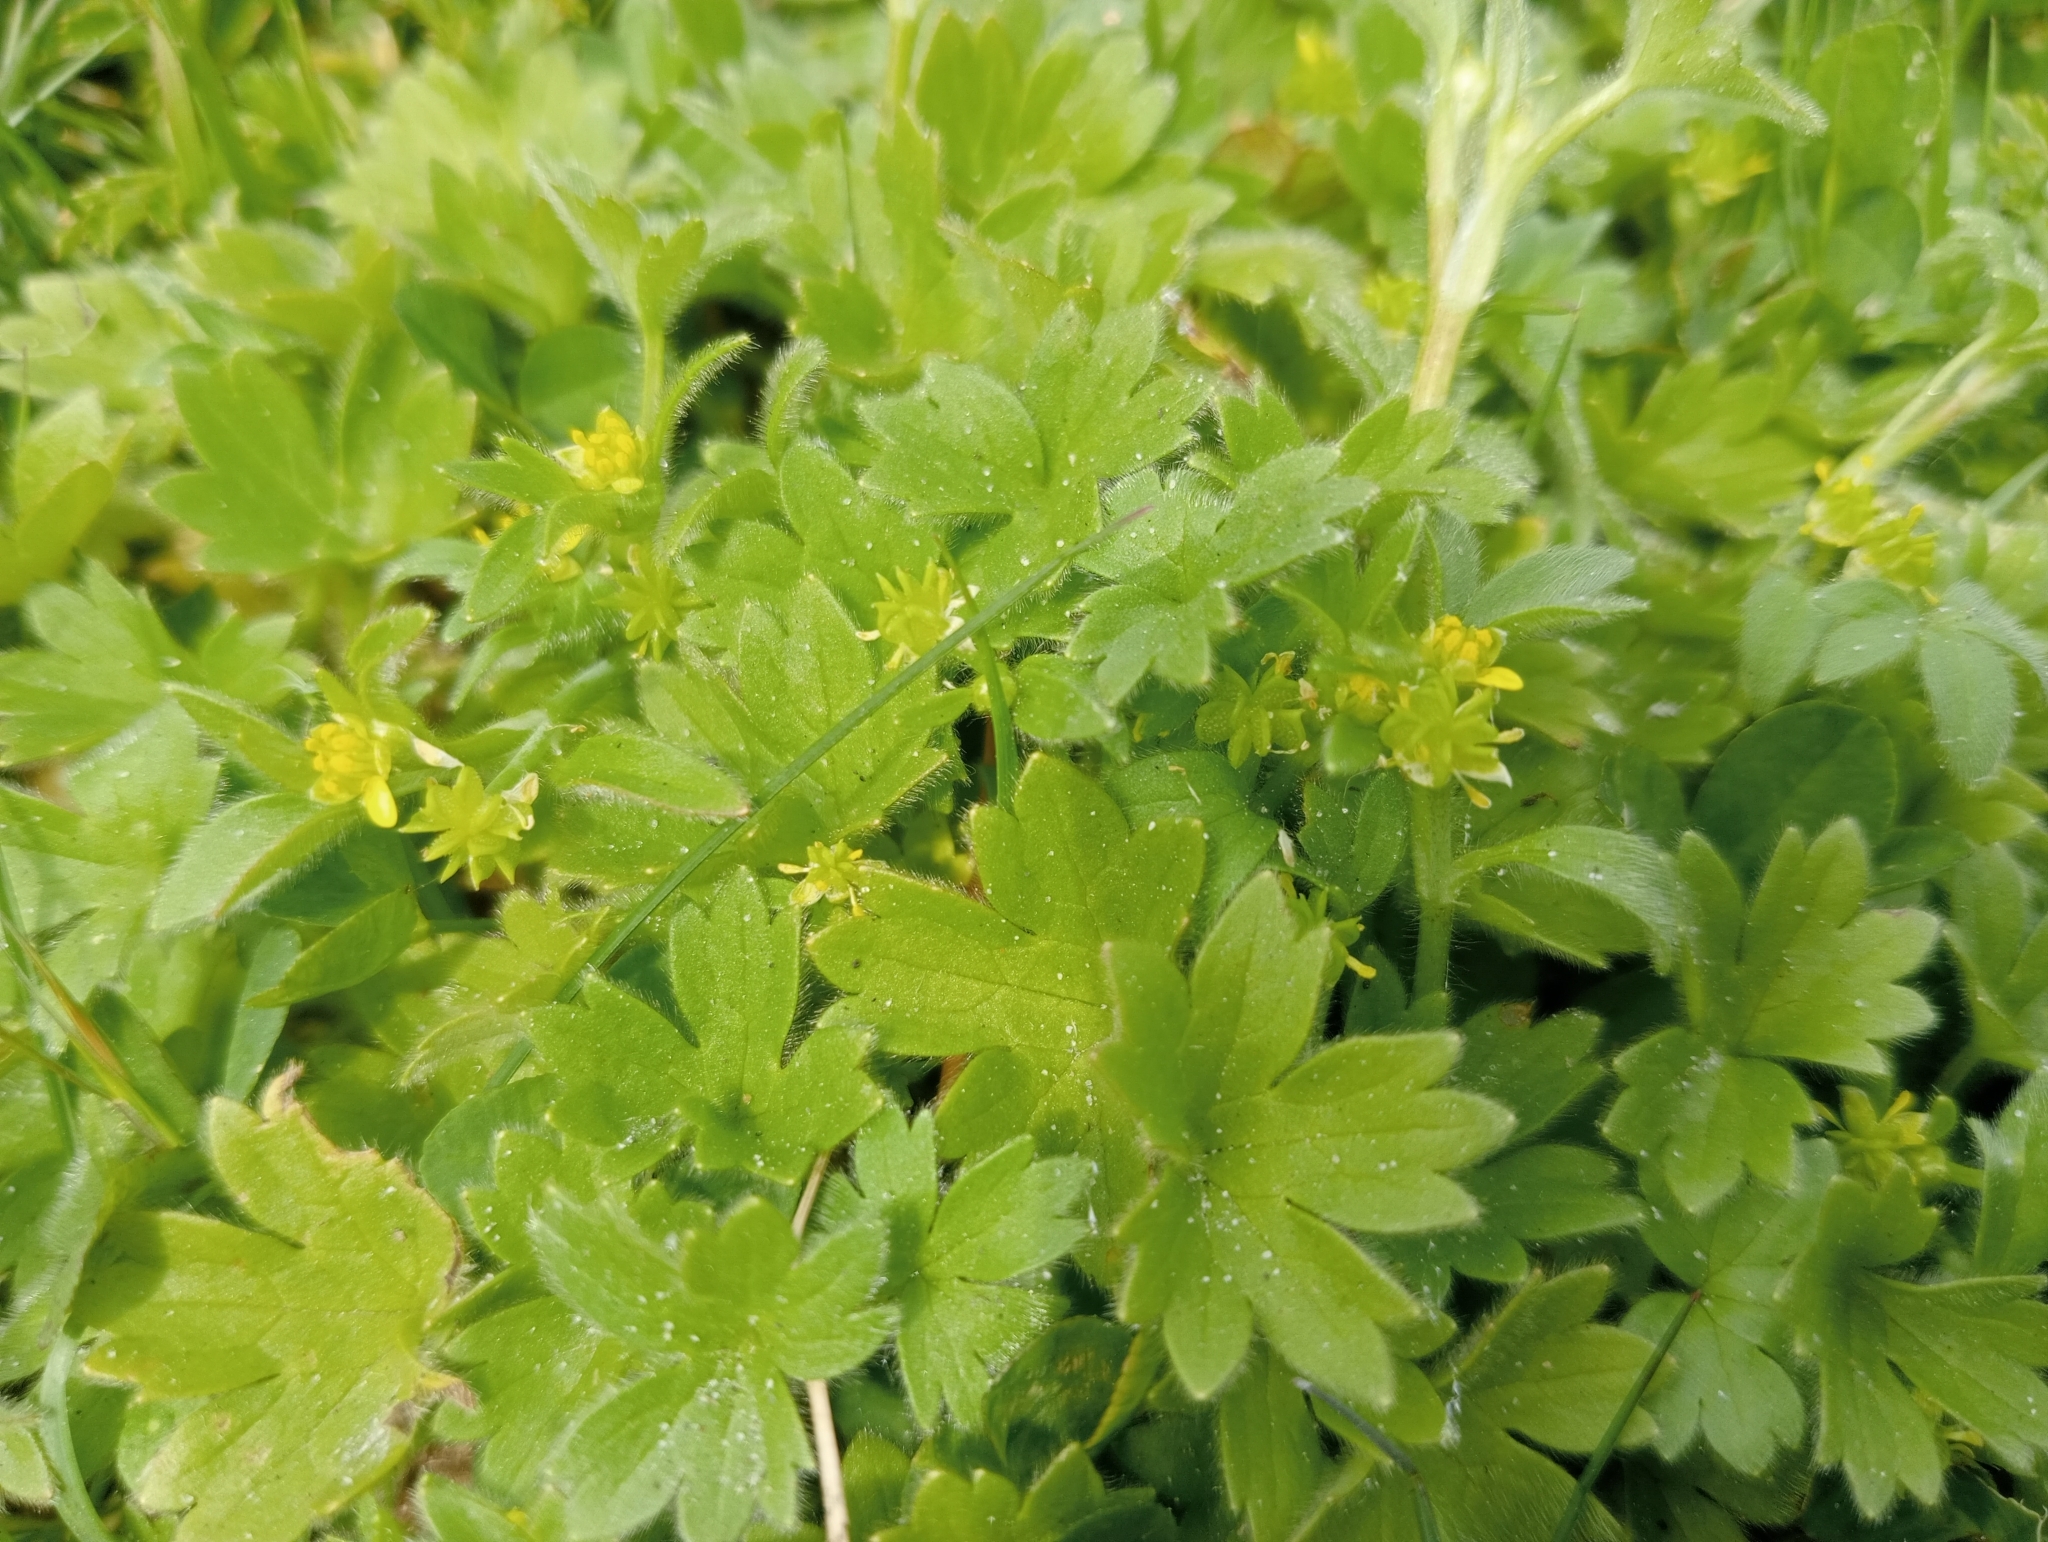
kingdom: Plantae
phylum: Tracheophyta
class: Magnoliopsida
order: Ranunculales
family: Ranunculaceae
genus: Ranunculus
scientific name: Ranunculus parviflorus
